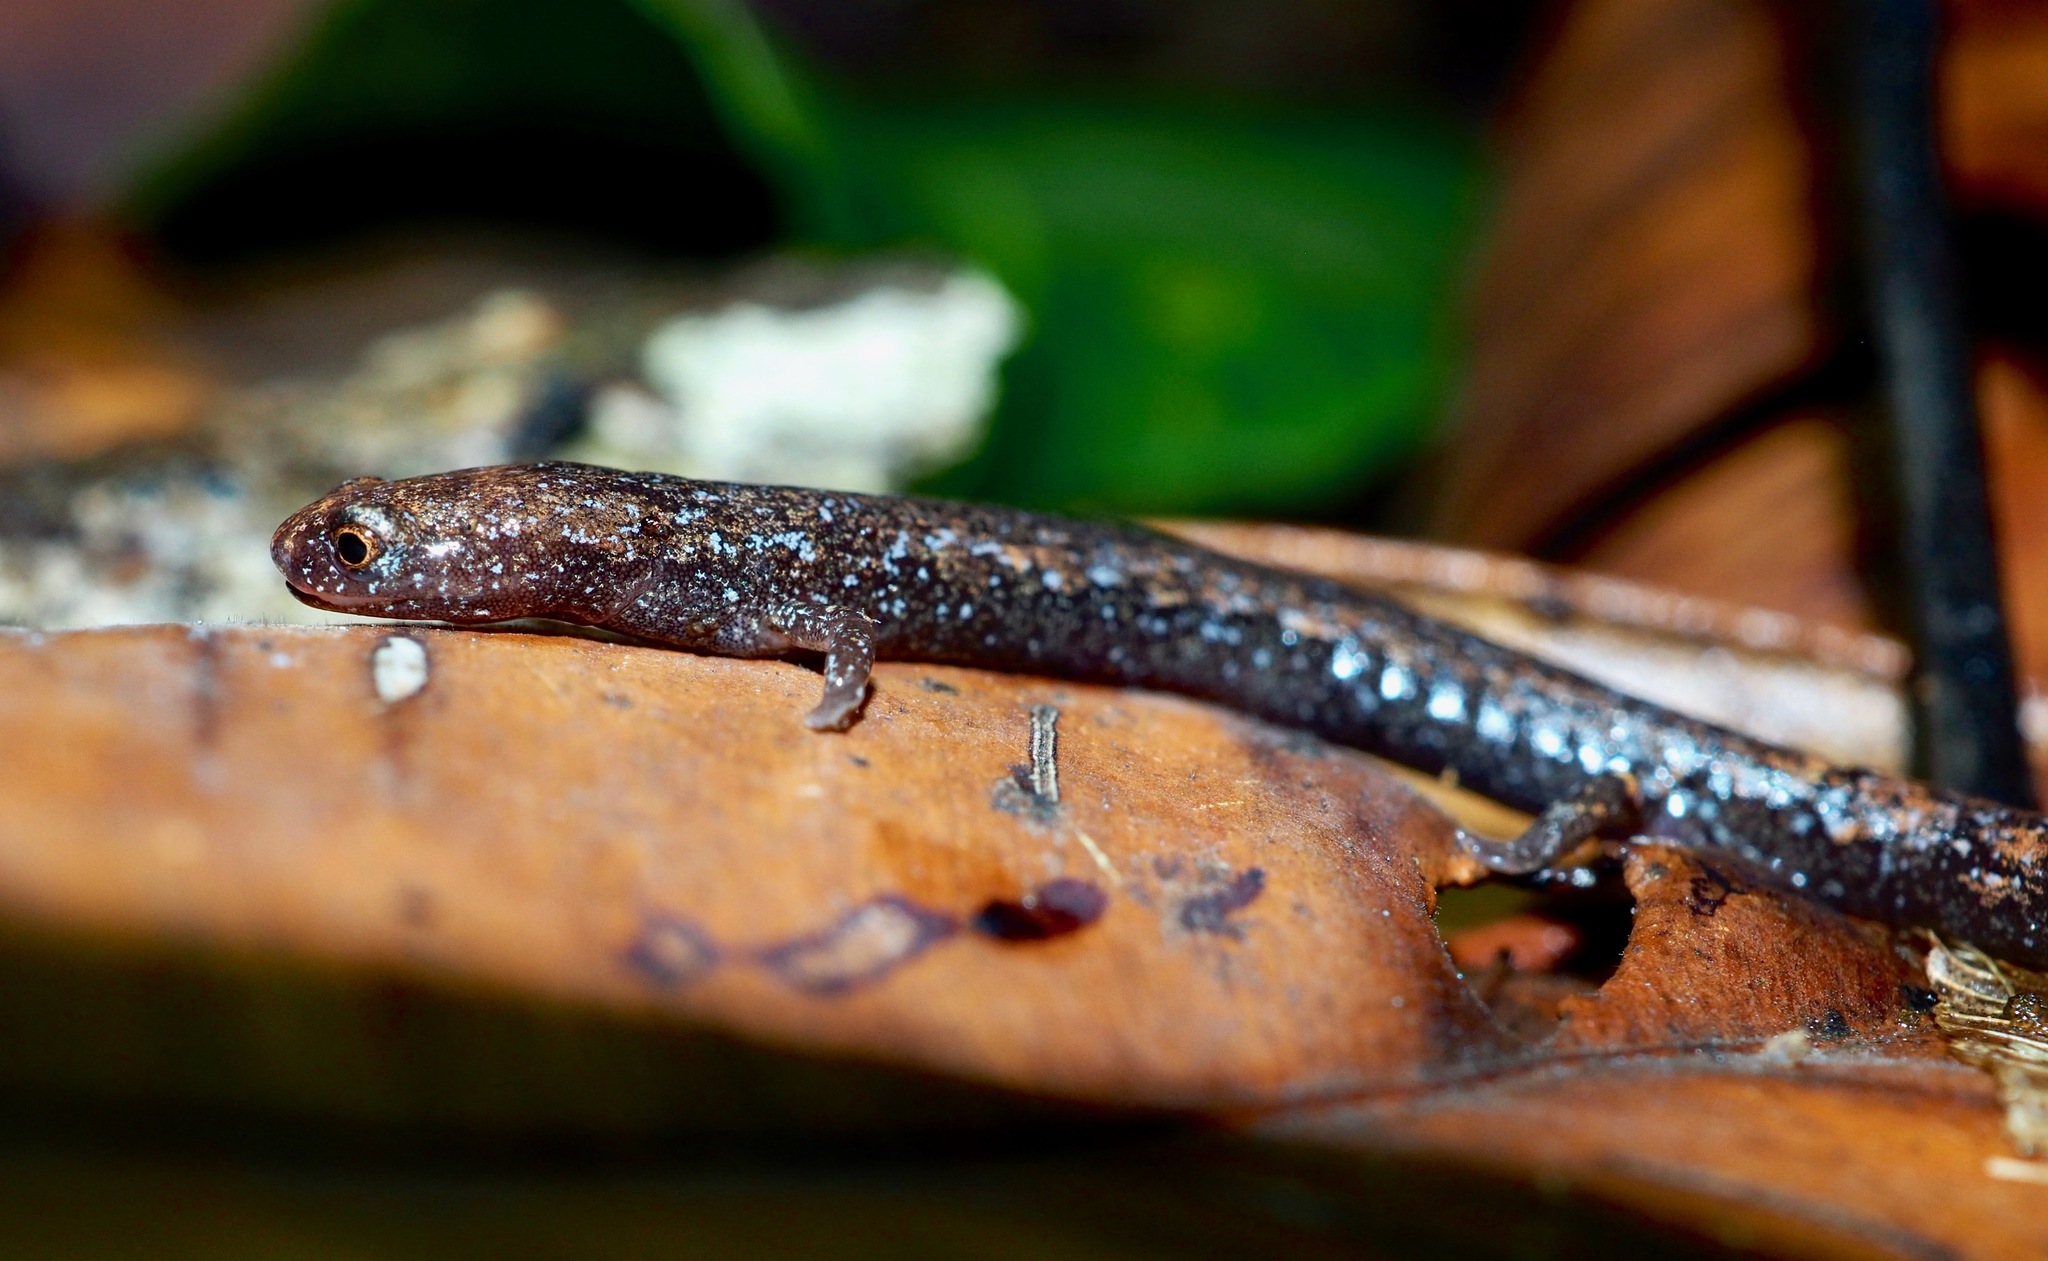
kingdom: Animalia
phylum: Chordata
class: Amphibia
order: Caudata
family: Plethodontidae
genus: Oedipina
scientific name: Oedipina
